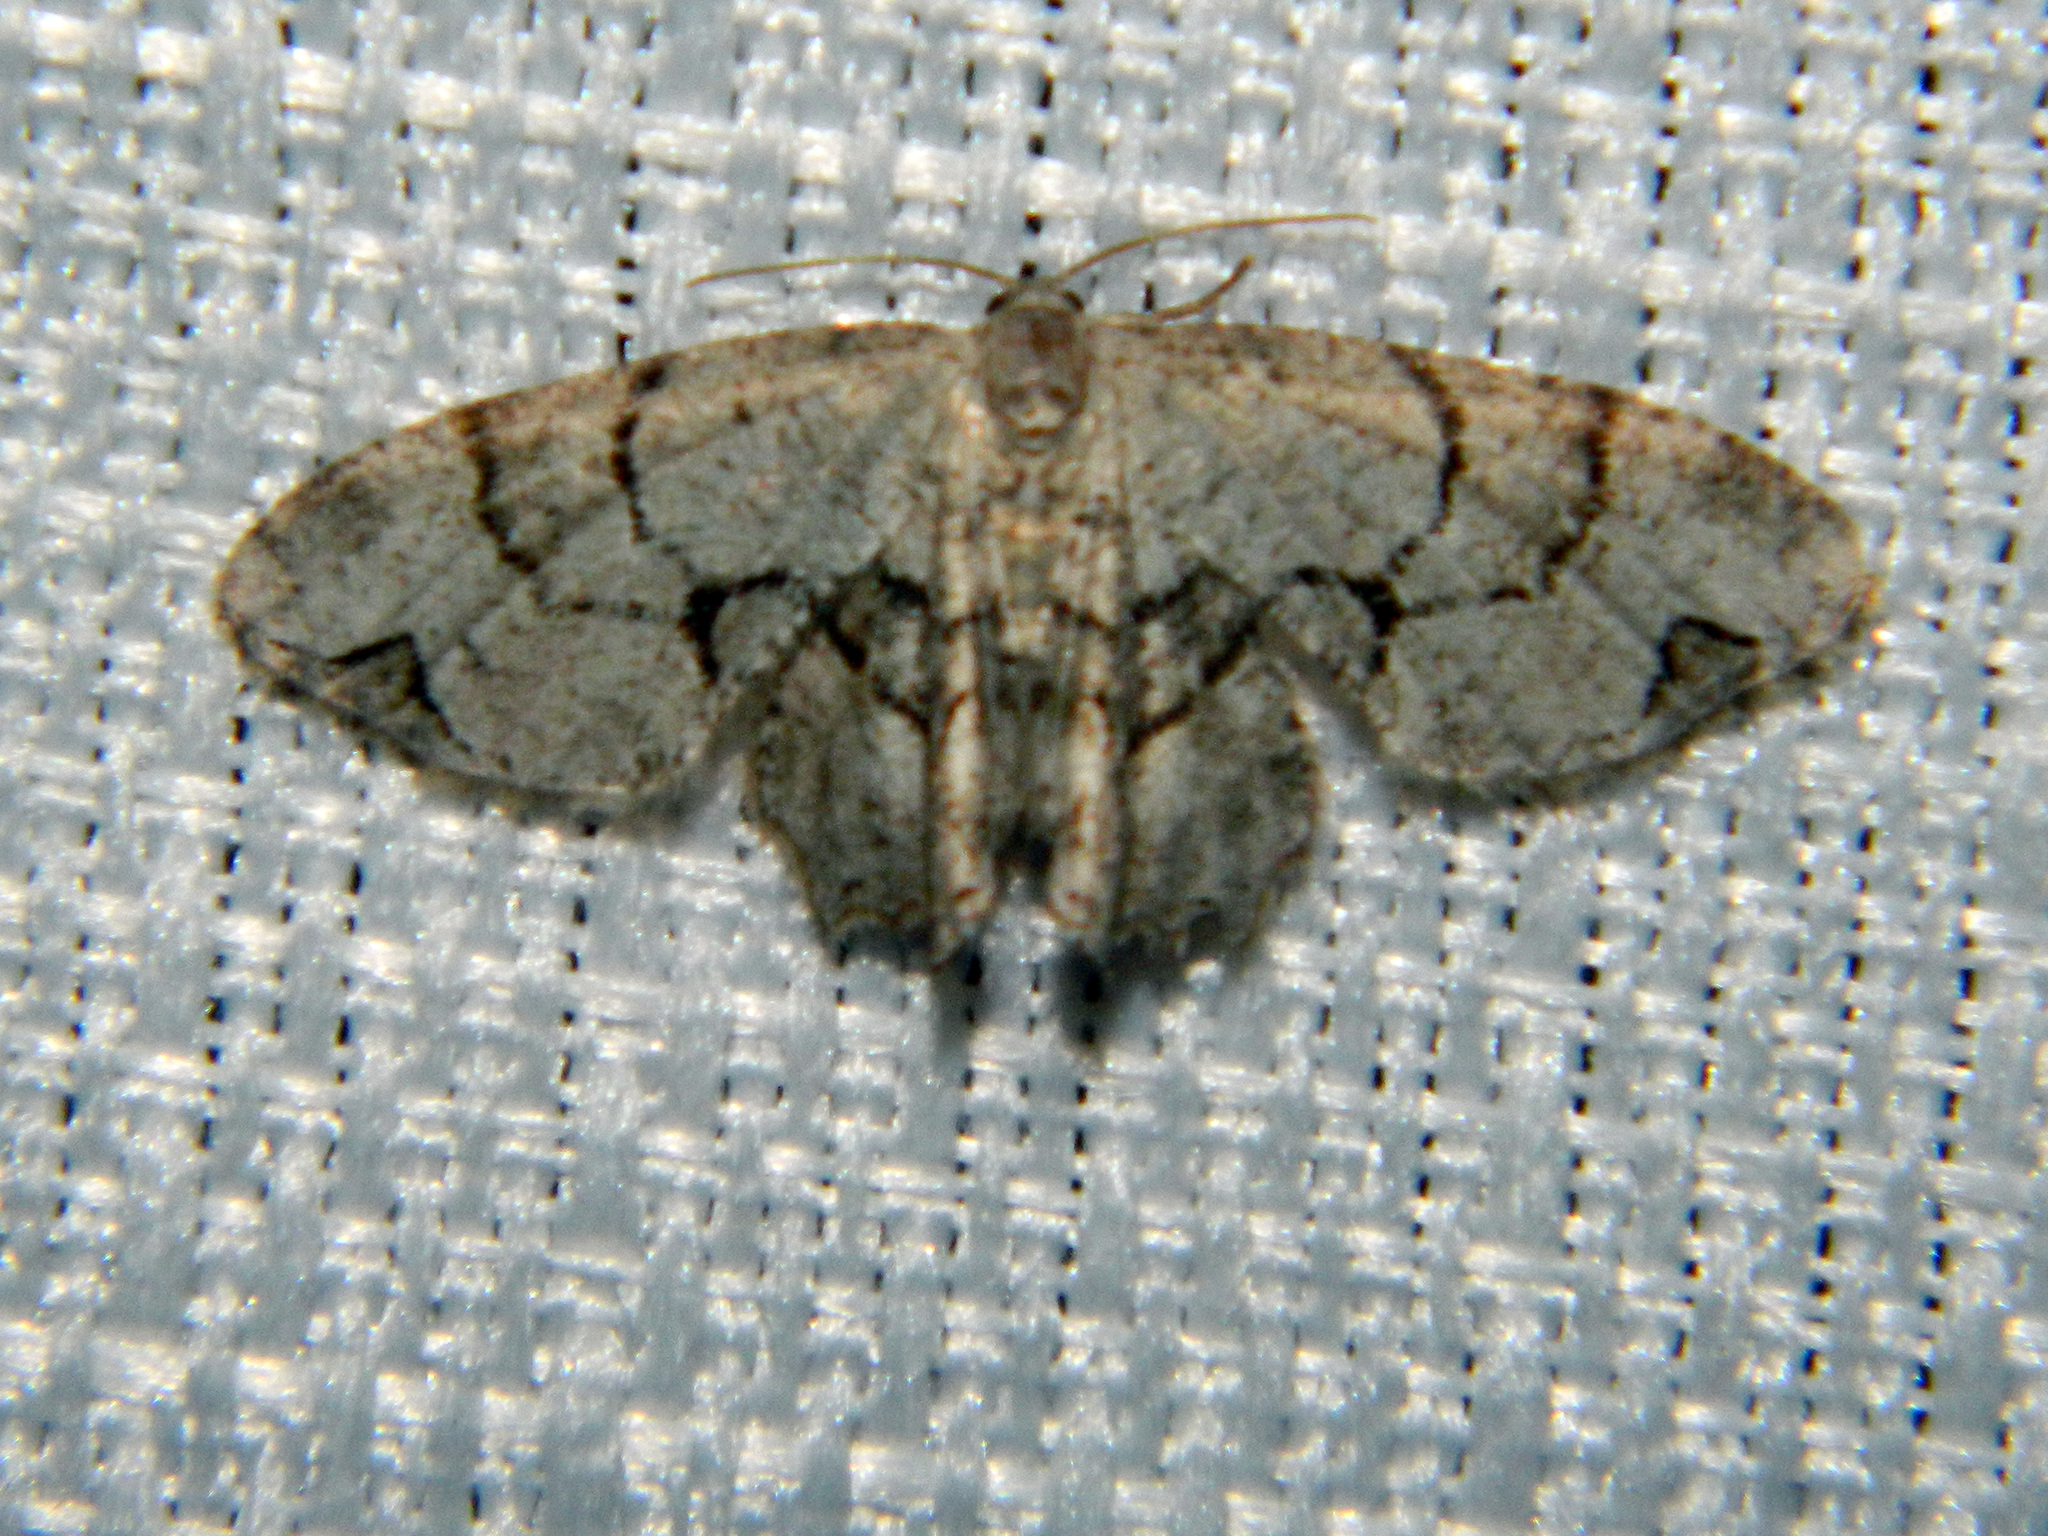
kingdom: Animalia
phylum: Arthropoda
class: Insecta
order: Lepidoptera
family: Uraniidae
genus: Epiplema
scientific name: Epiplema Callizzia amorata
